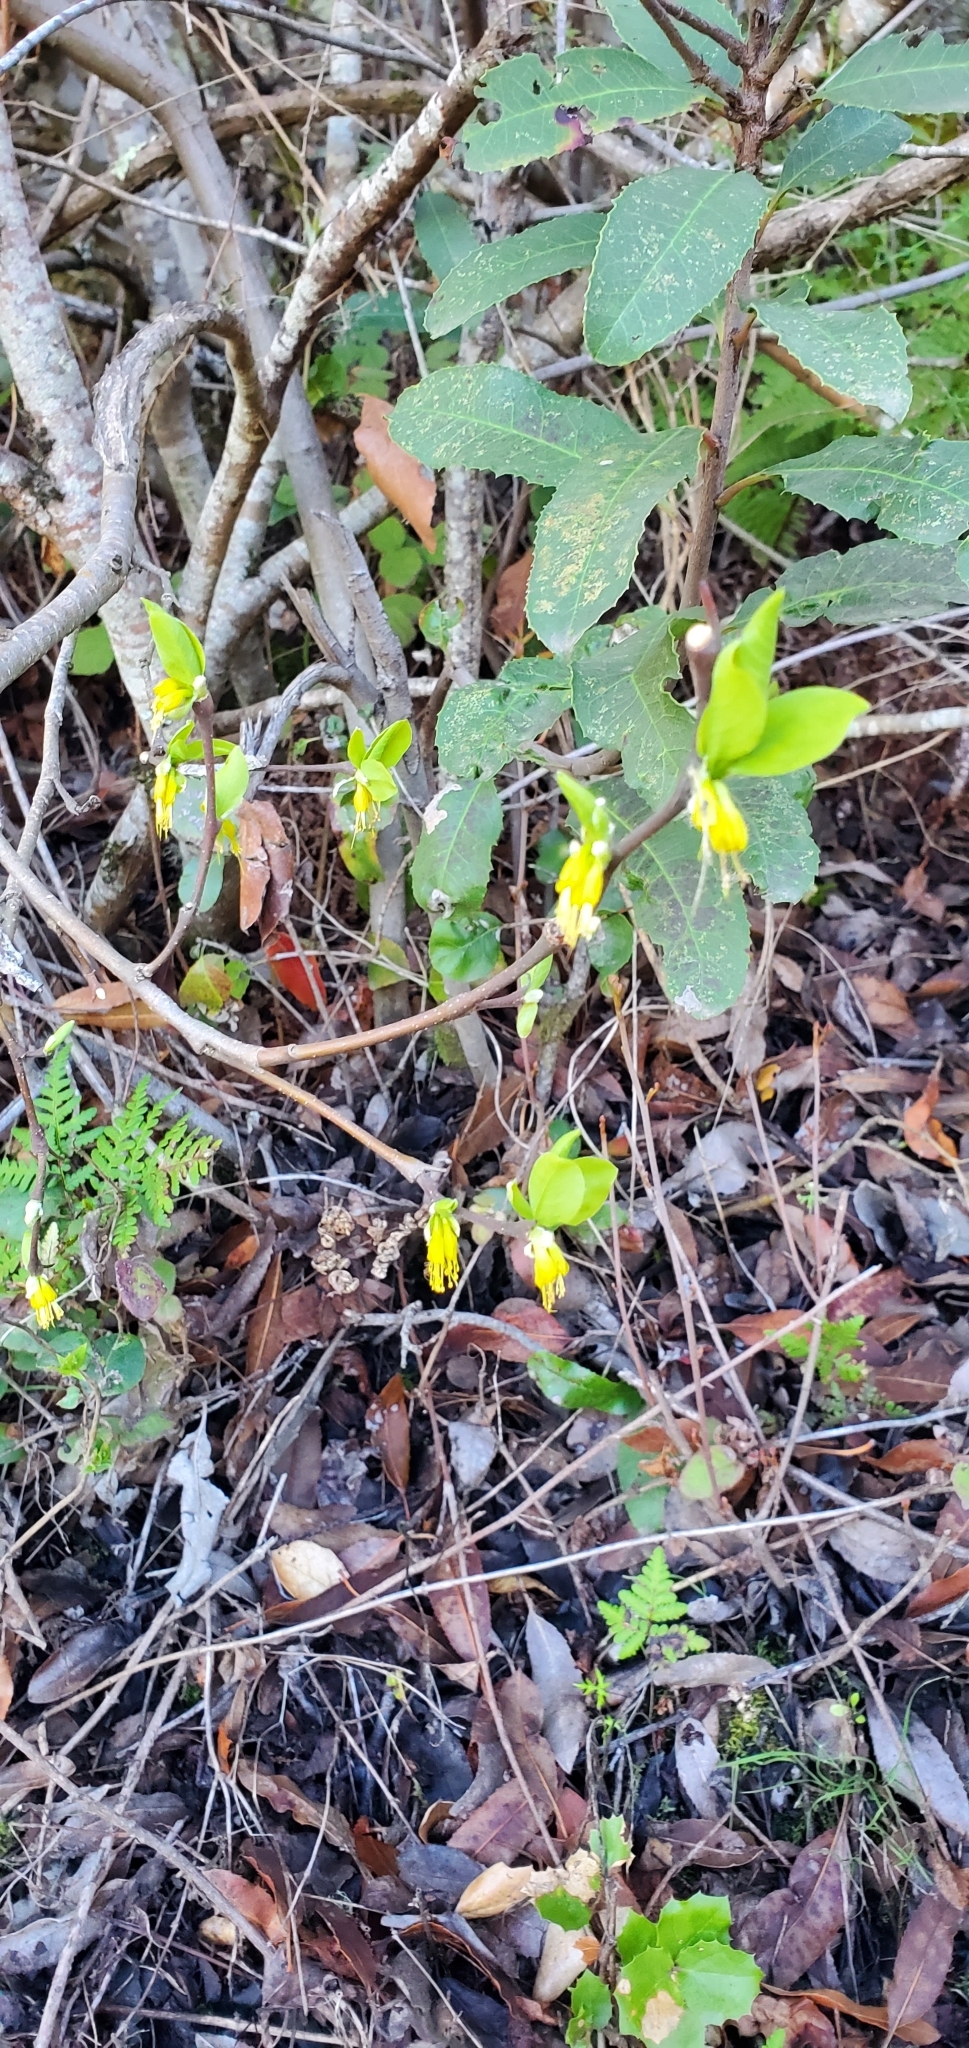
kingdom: Plantae
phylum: Tracheophyta
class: Magnoliopsida
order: Malvales
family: Thymelaeaceae
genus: Dirca
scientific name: Dirca occidentalis
